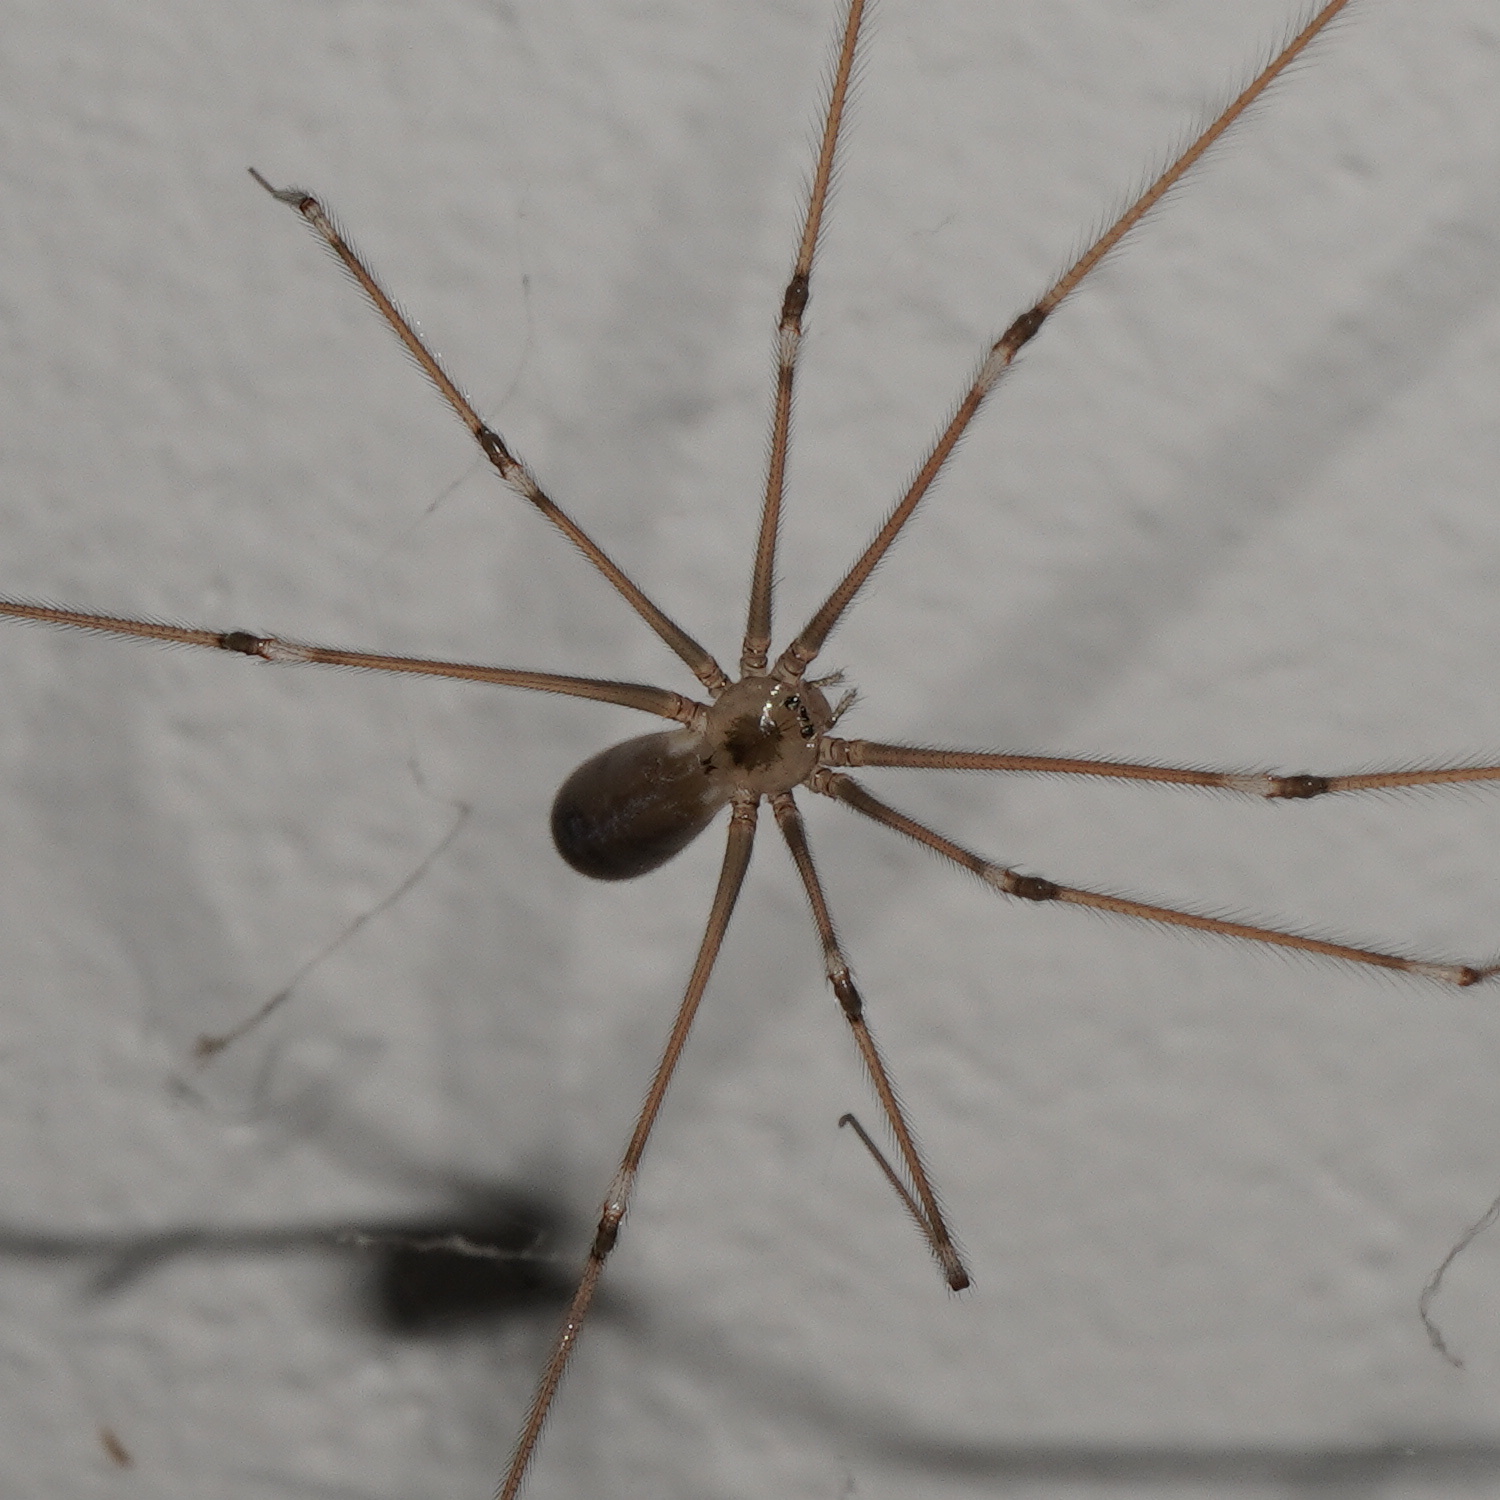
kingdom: Animalia
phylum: Arthropoda
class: Arachnida
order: Araneae
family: Pholcidae
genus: Pholcus
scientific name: Pholcus phalangioides
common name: Longbodied cellar spider
